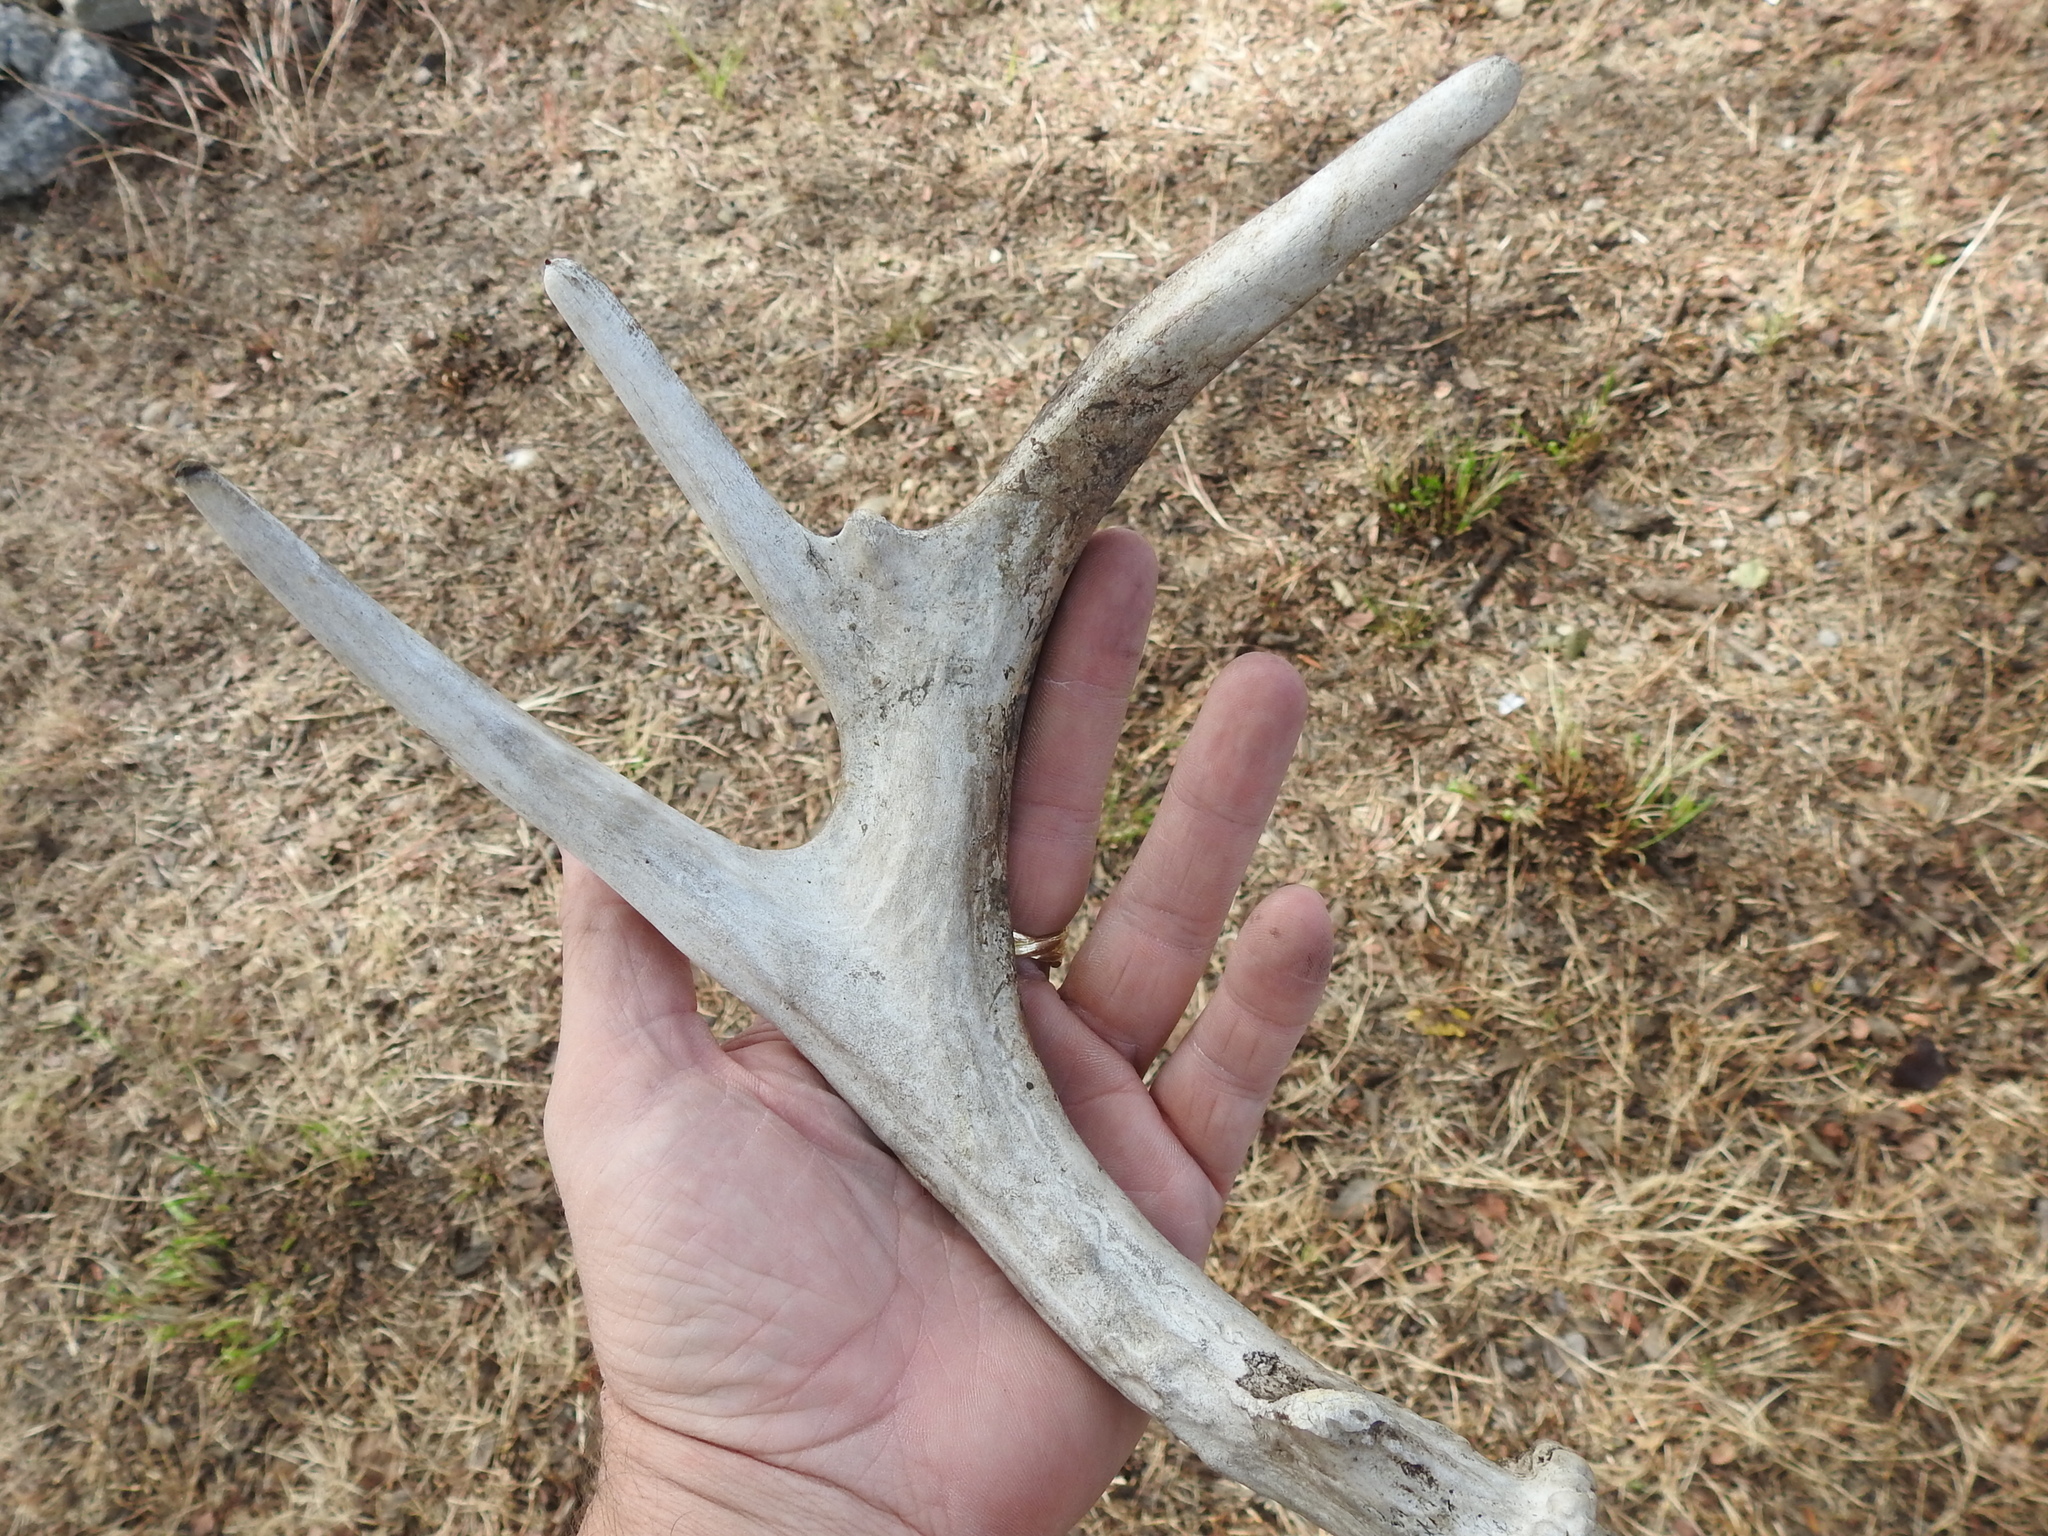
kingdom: Animalia
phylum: Chordata
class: Mammalia
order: Artiodactyla
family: Cervidae
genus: Odocoileus
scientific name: Odocoileus virginianus
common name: White-tailed deer
